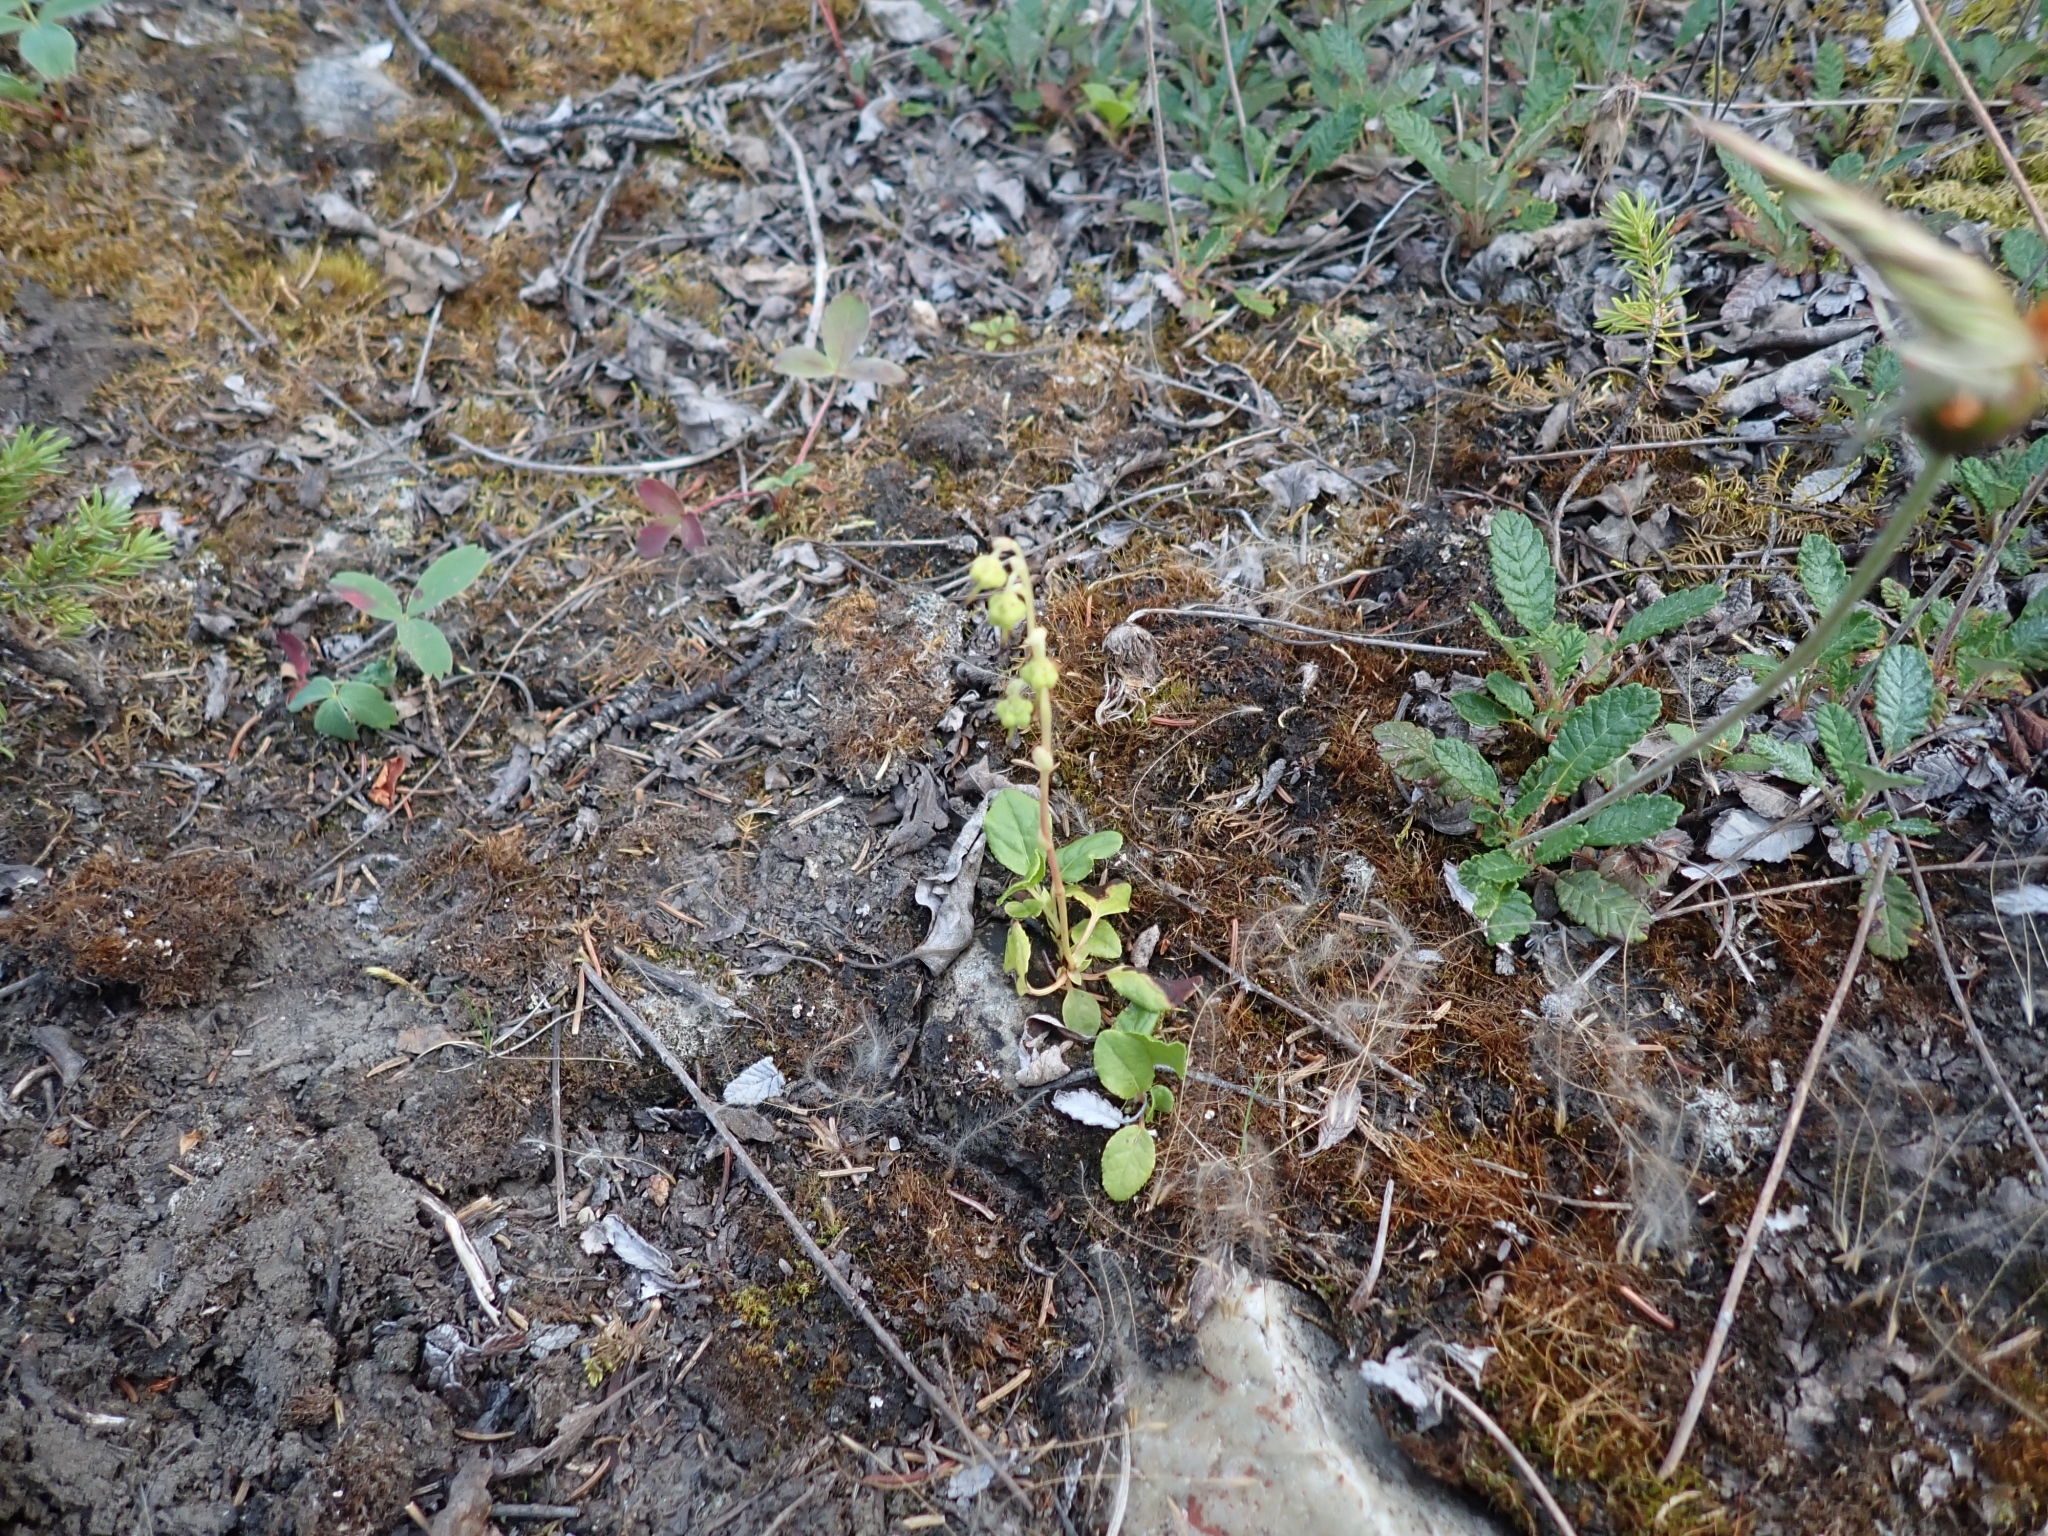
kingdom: Plantae
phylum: Tracheophyta
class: Magnoliopsida
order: Ericales
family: Ericaceae
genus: Orthilia
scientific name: Orthilia secunda
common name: One-sided orthilia
